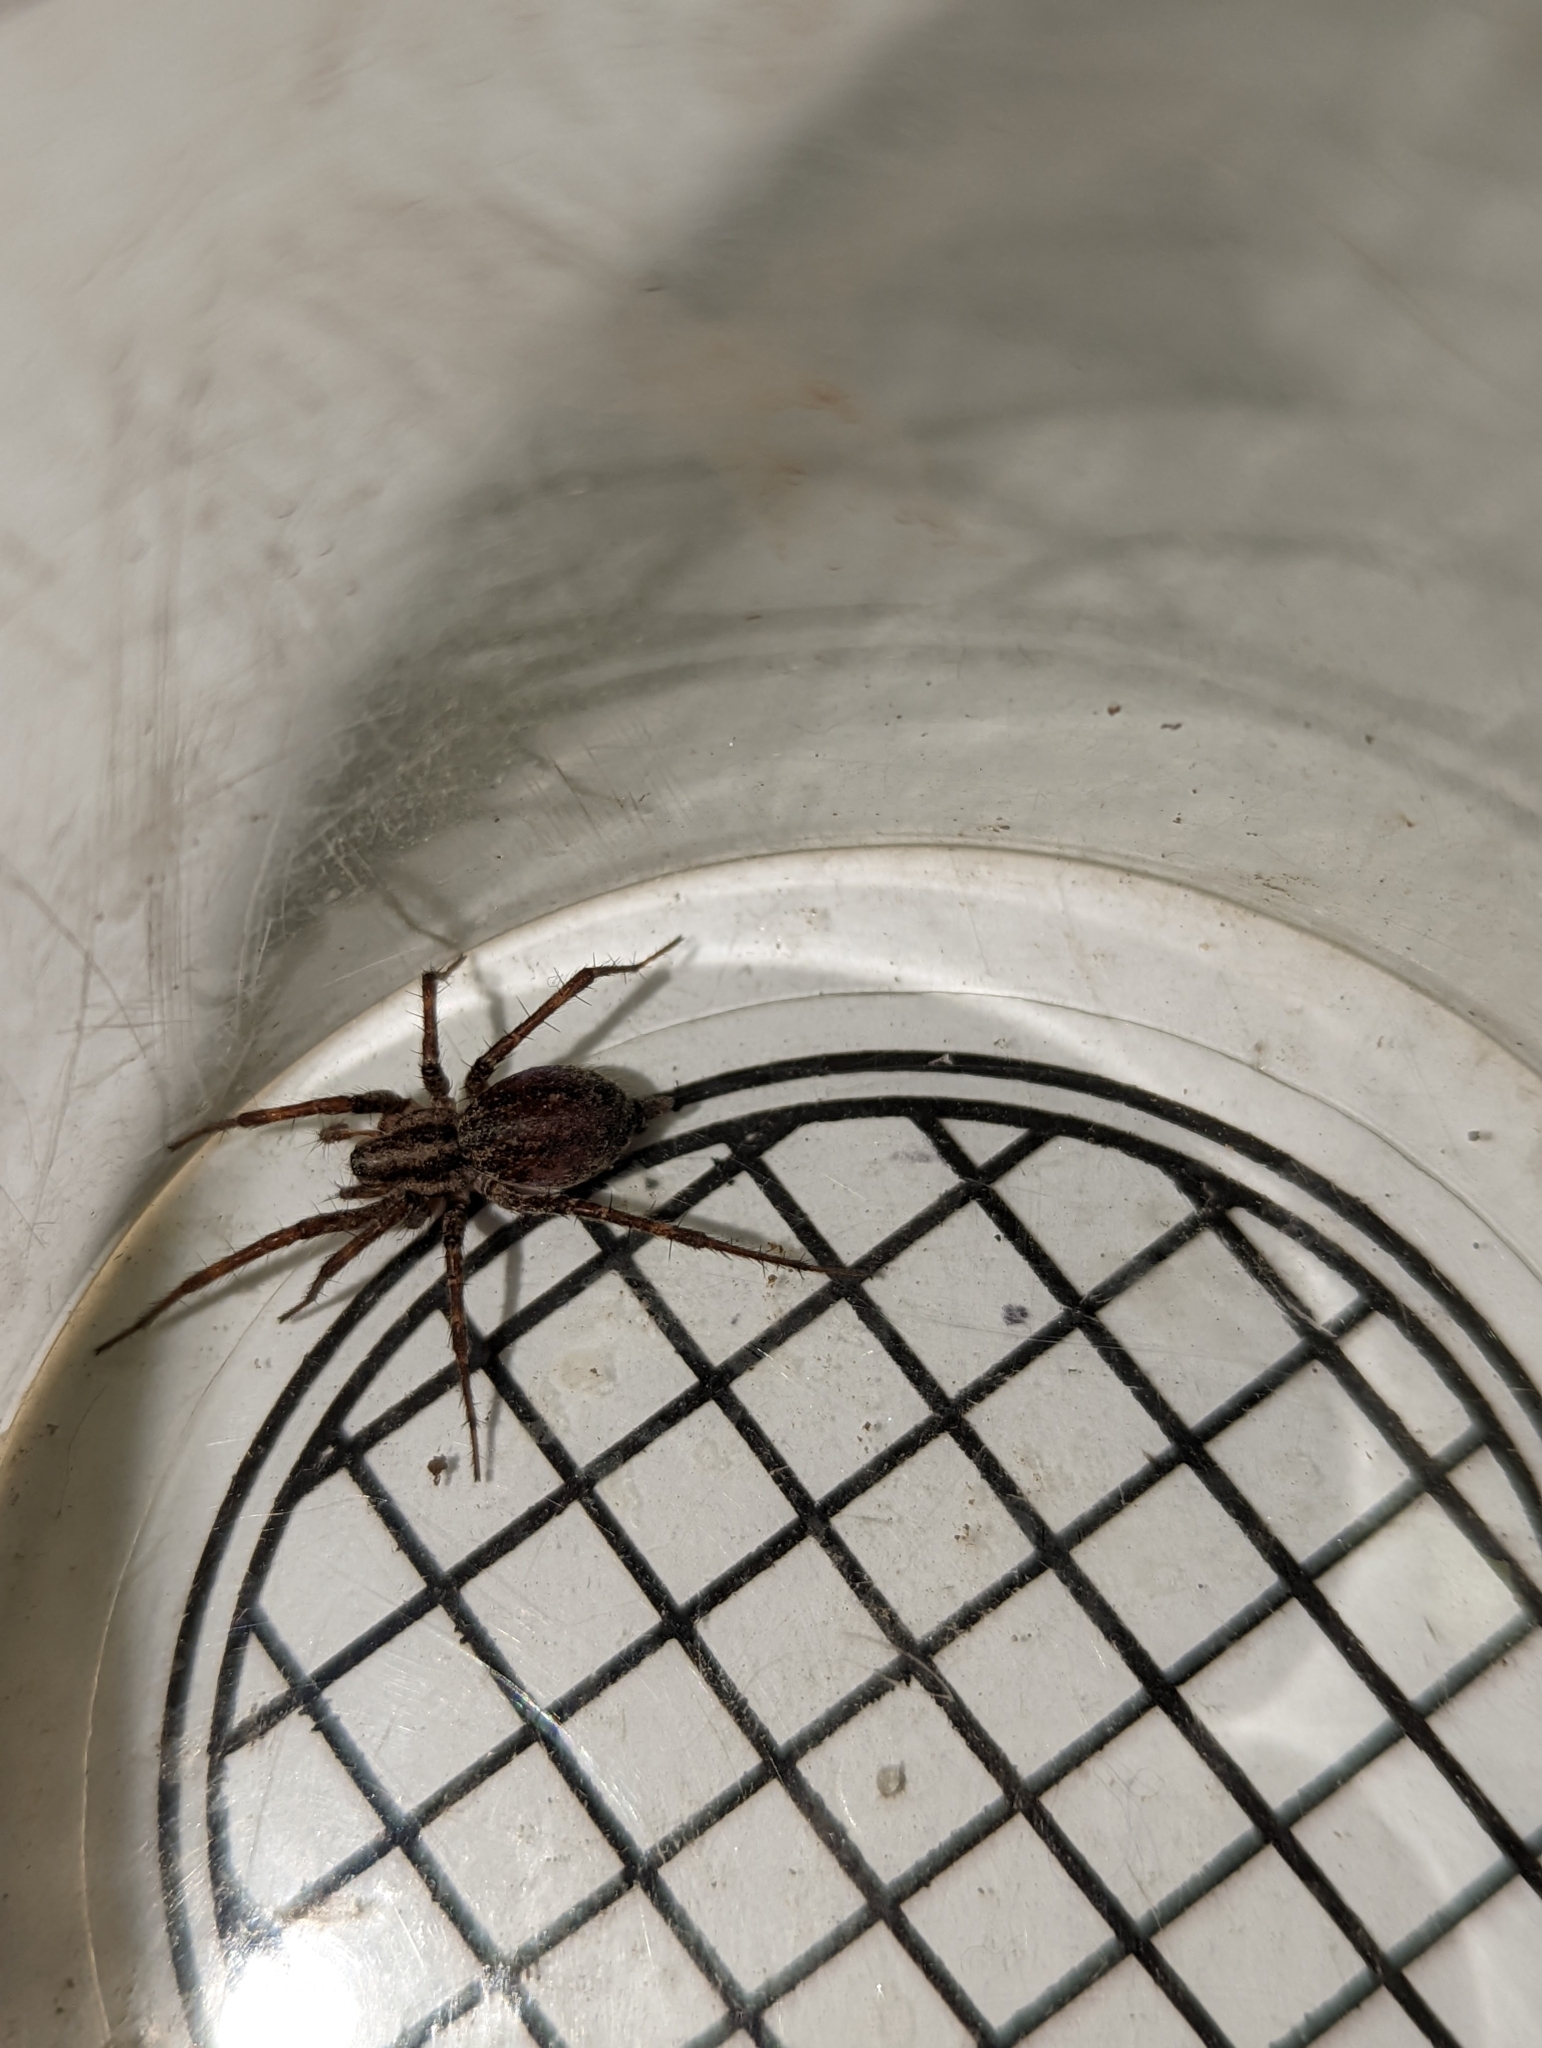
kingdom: Animalia
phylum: Arthropoda
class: Arachnida
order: Araneae
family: Agelenidae
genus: Agelenopsis
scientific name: Agelenopsis
